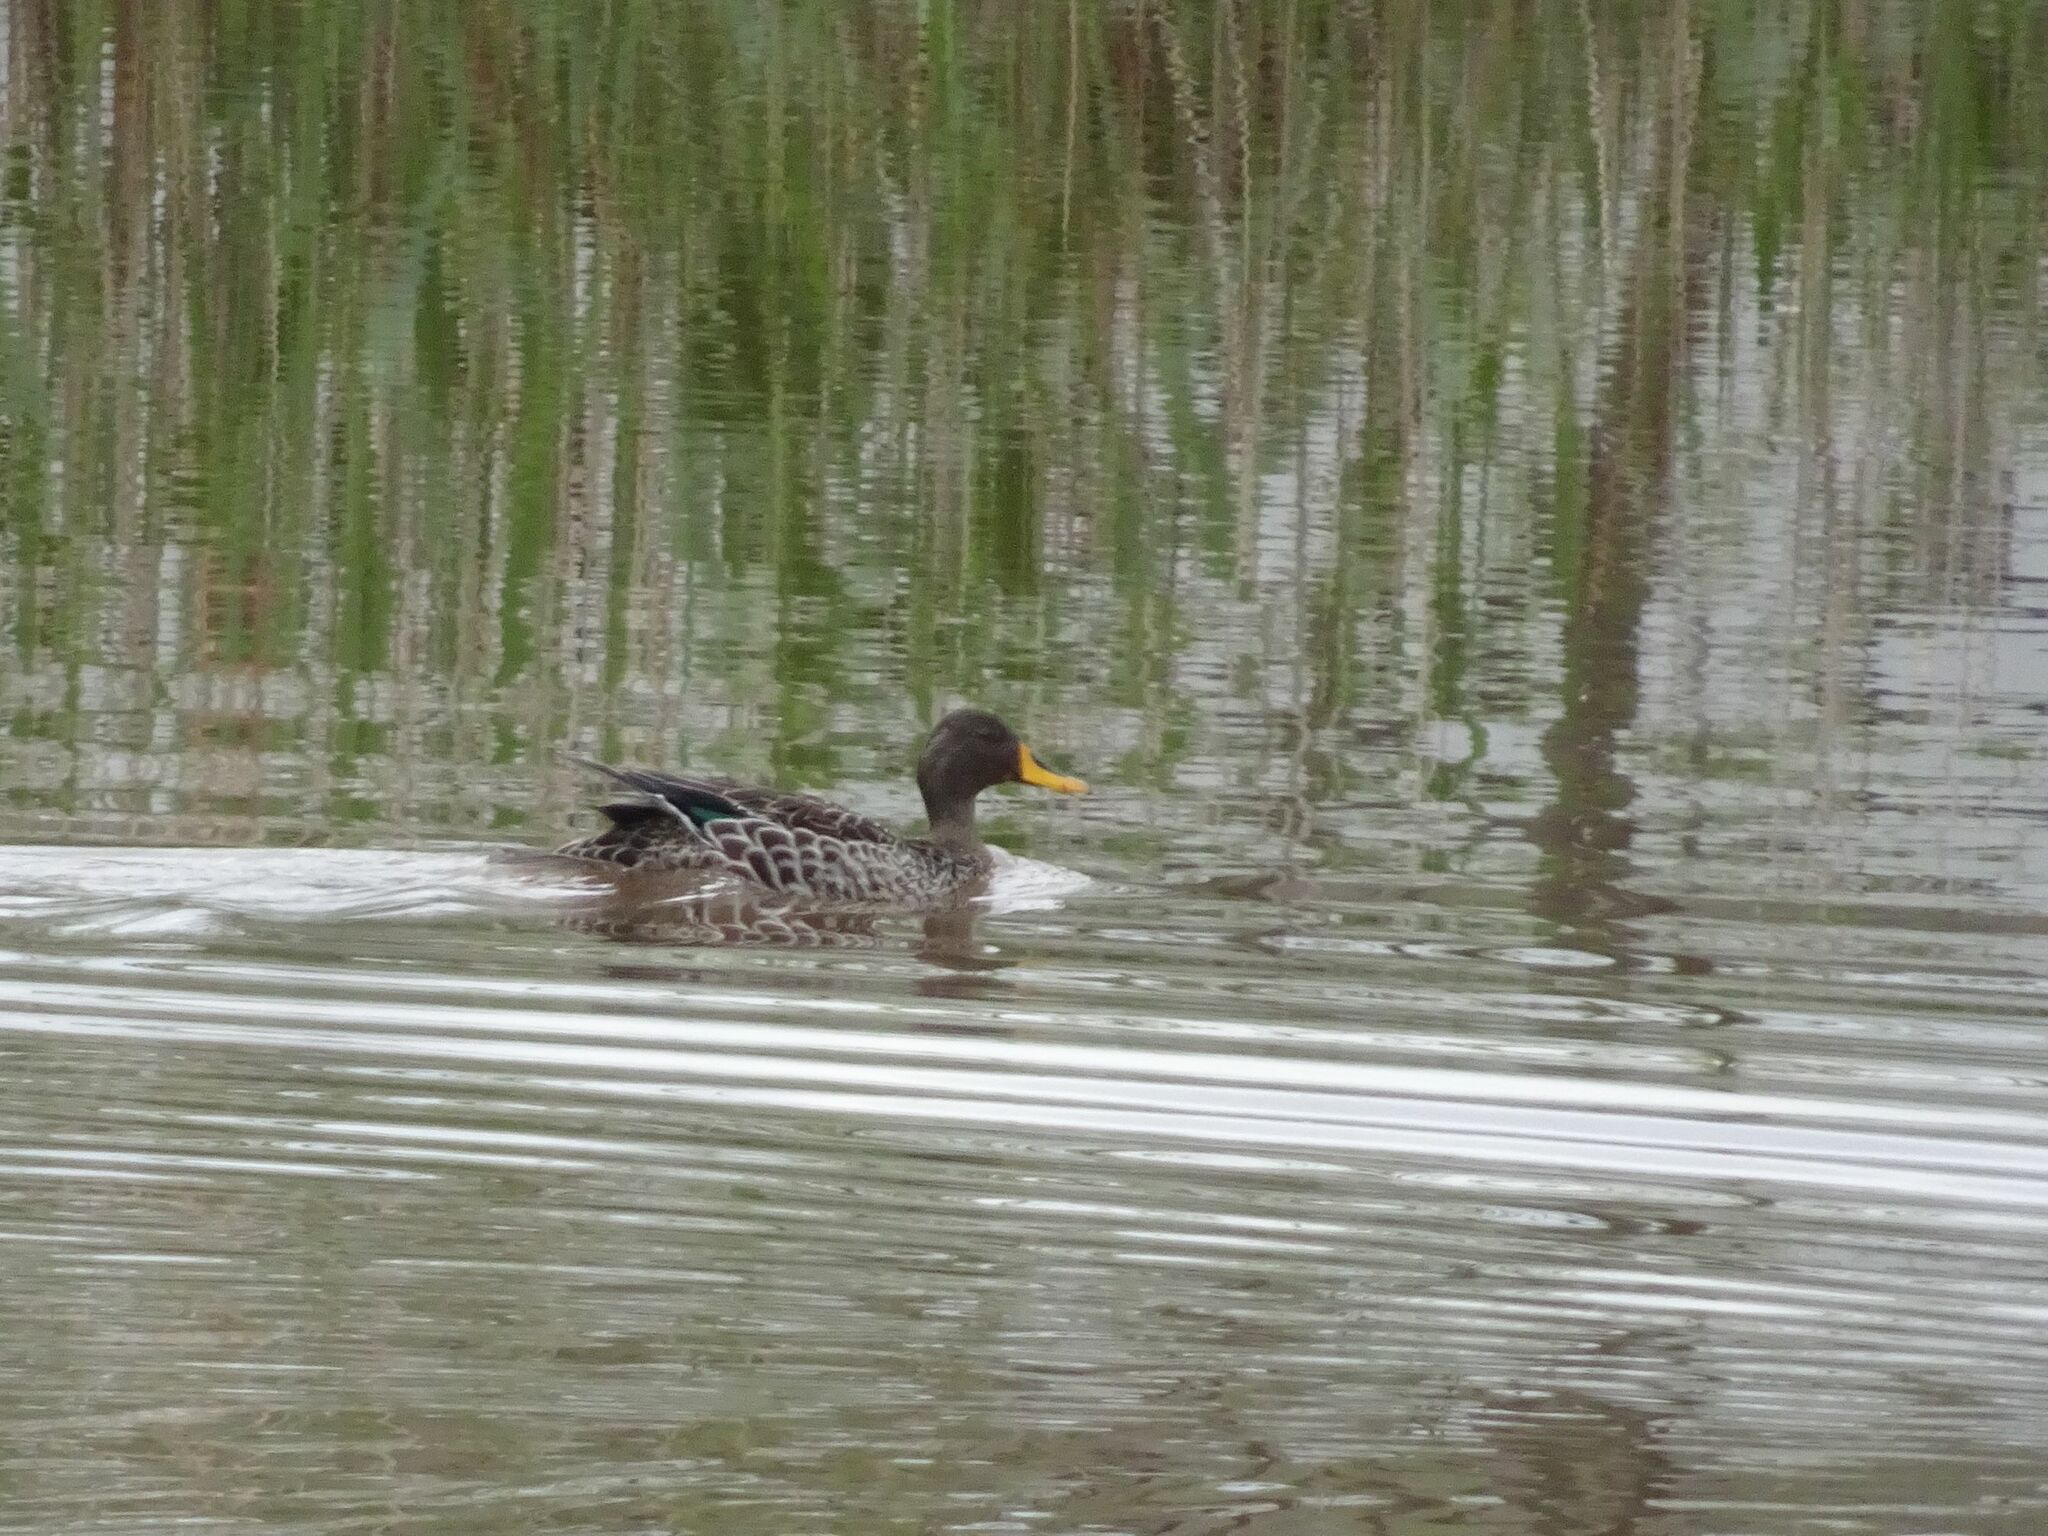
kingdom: Animalia
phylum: Chordata
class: Aves
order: Anseriformes
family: Anatidae
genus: Anas
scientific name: Anas undulata
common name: Yellow-billed duck
